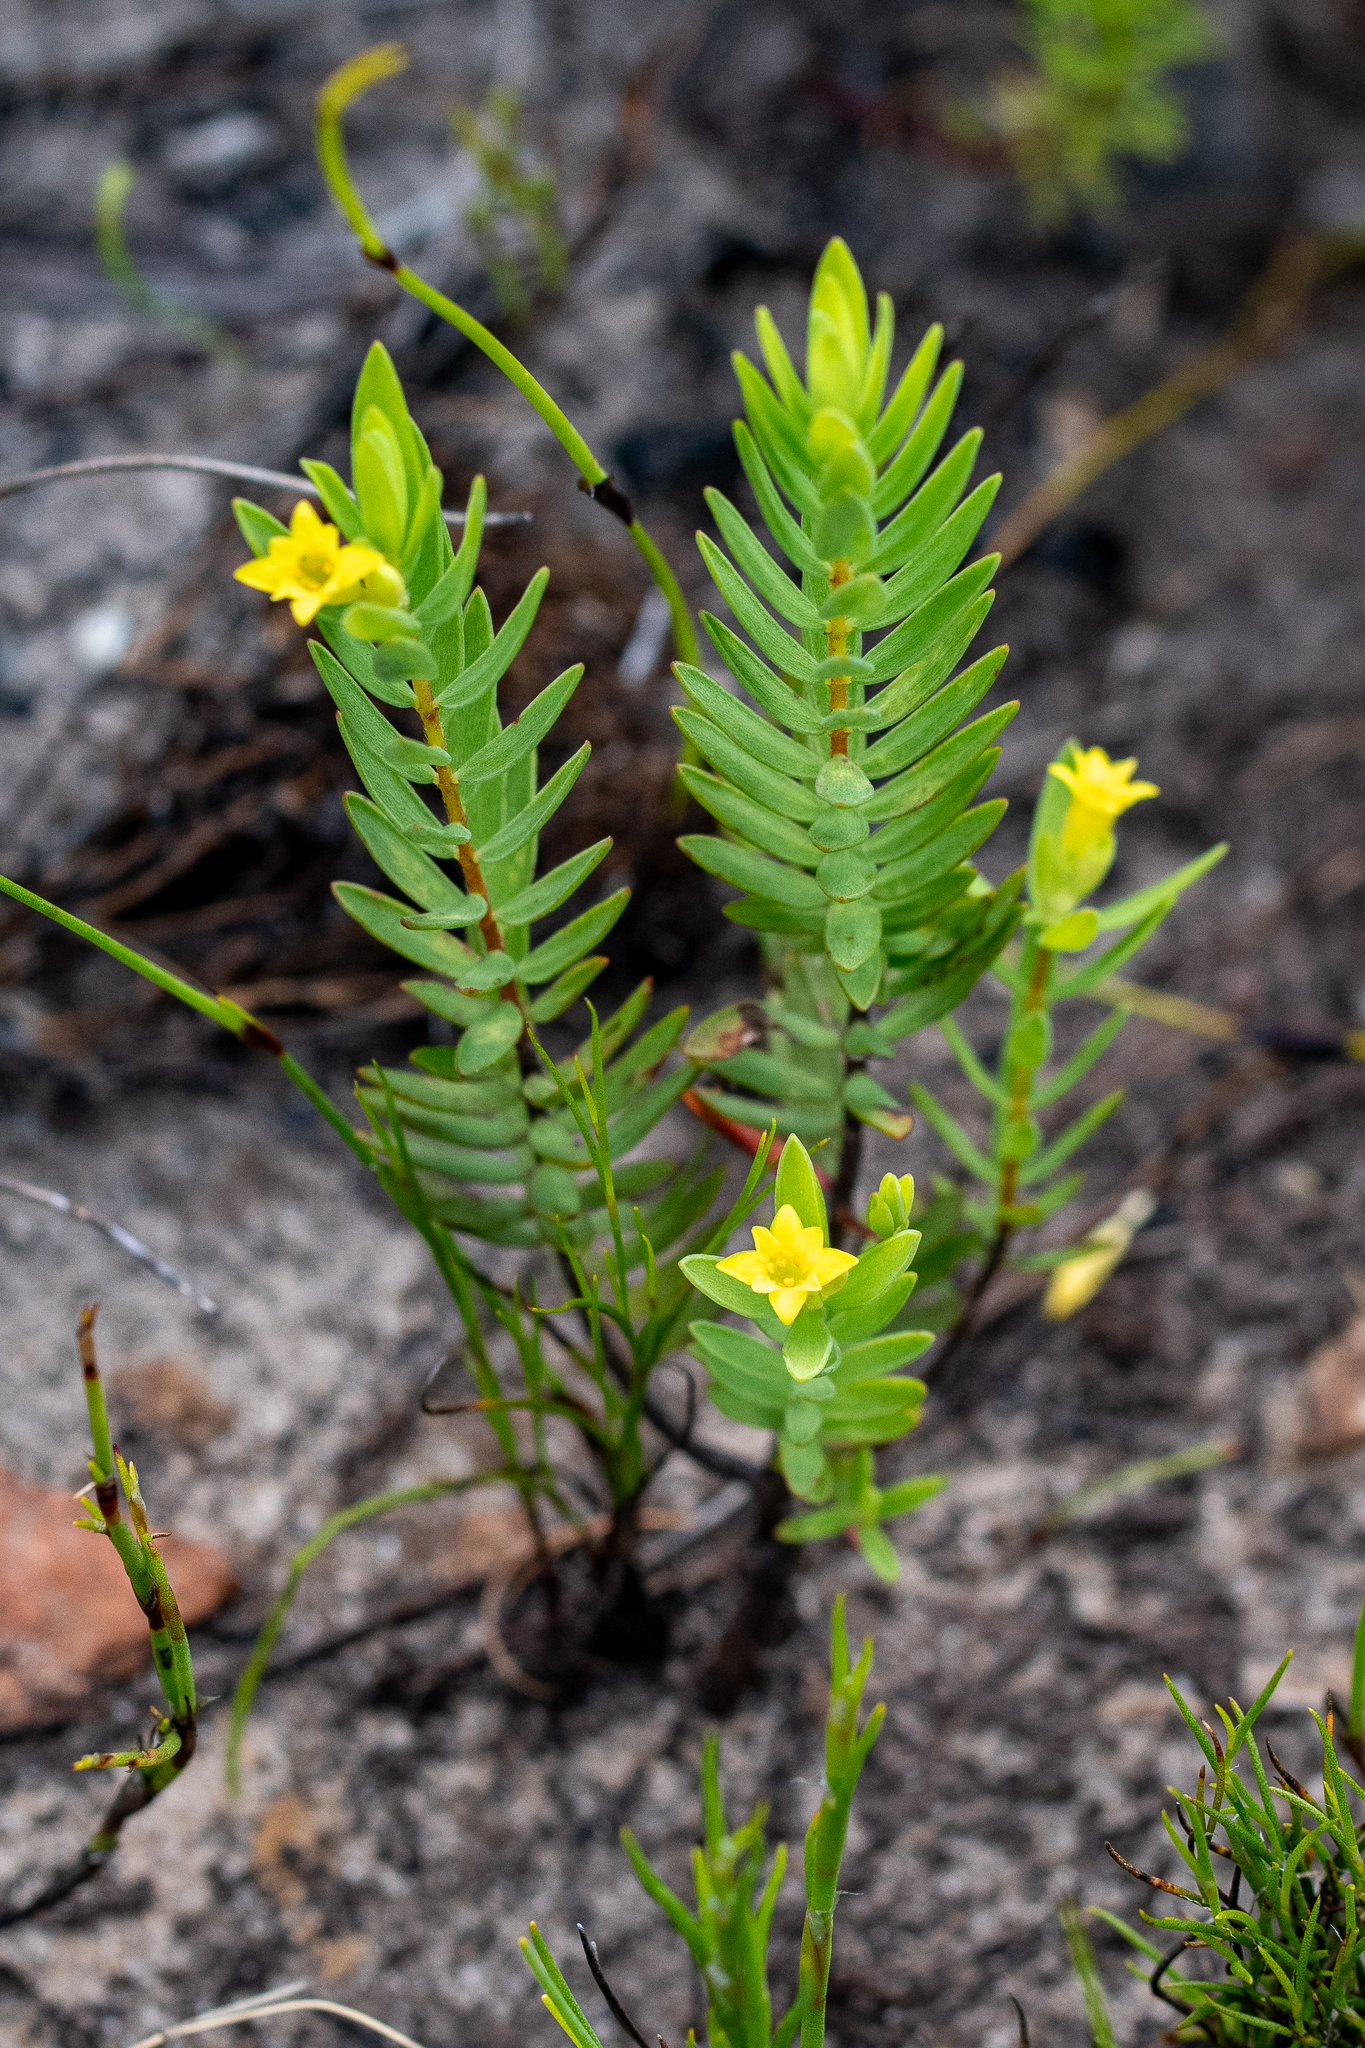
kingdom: Plantae
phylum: Tracheophyta
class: Magnoliopsida
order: Malvales
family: Thymelaeaceae
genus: Gnidia
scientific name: Gnidia juniperifolia
